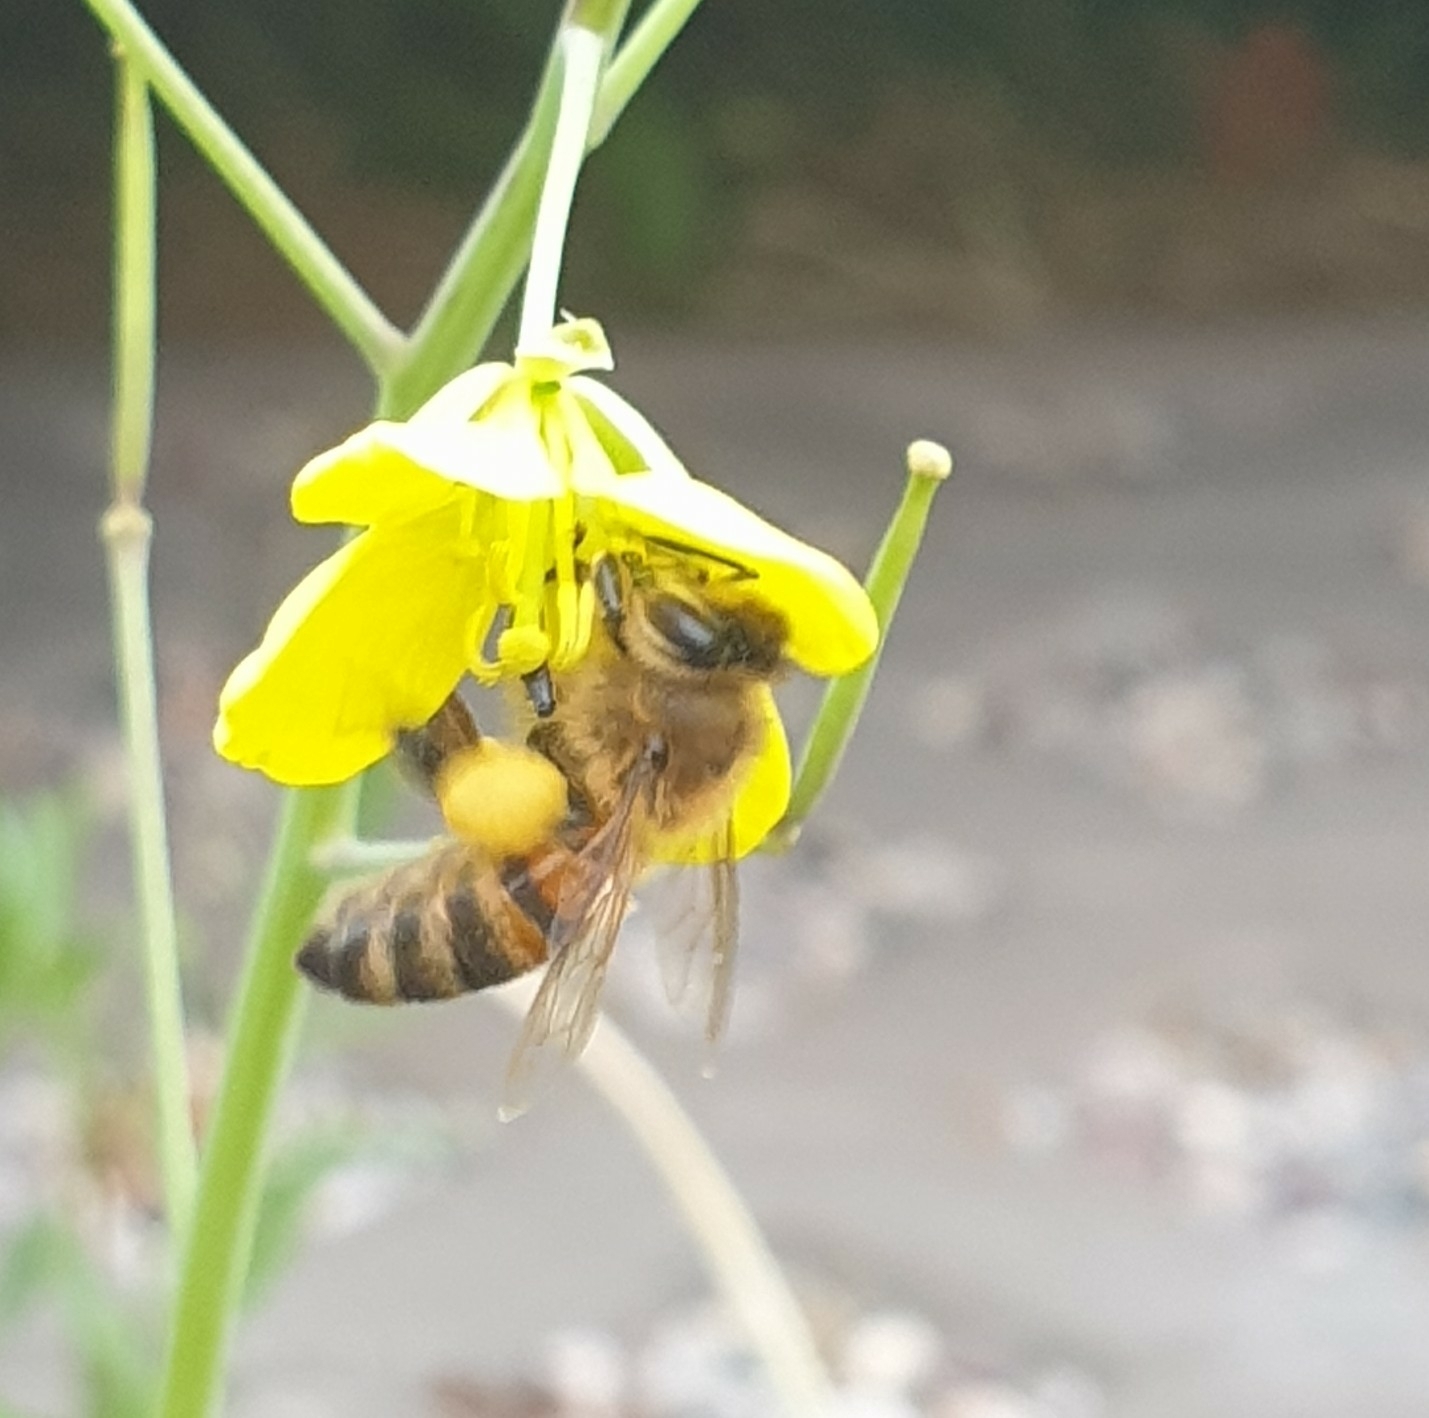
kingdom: Animalia
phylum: Arthropoda
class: Insecta
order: Hymenoptera
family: Apidae
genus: Apis
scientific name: Apis mellifera
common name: Honey bee
